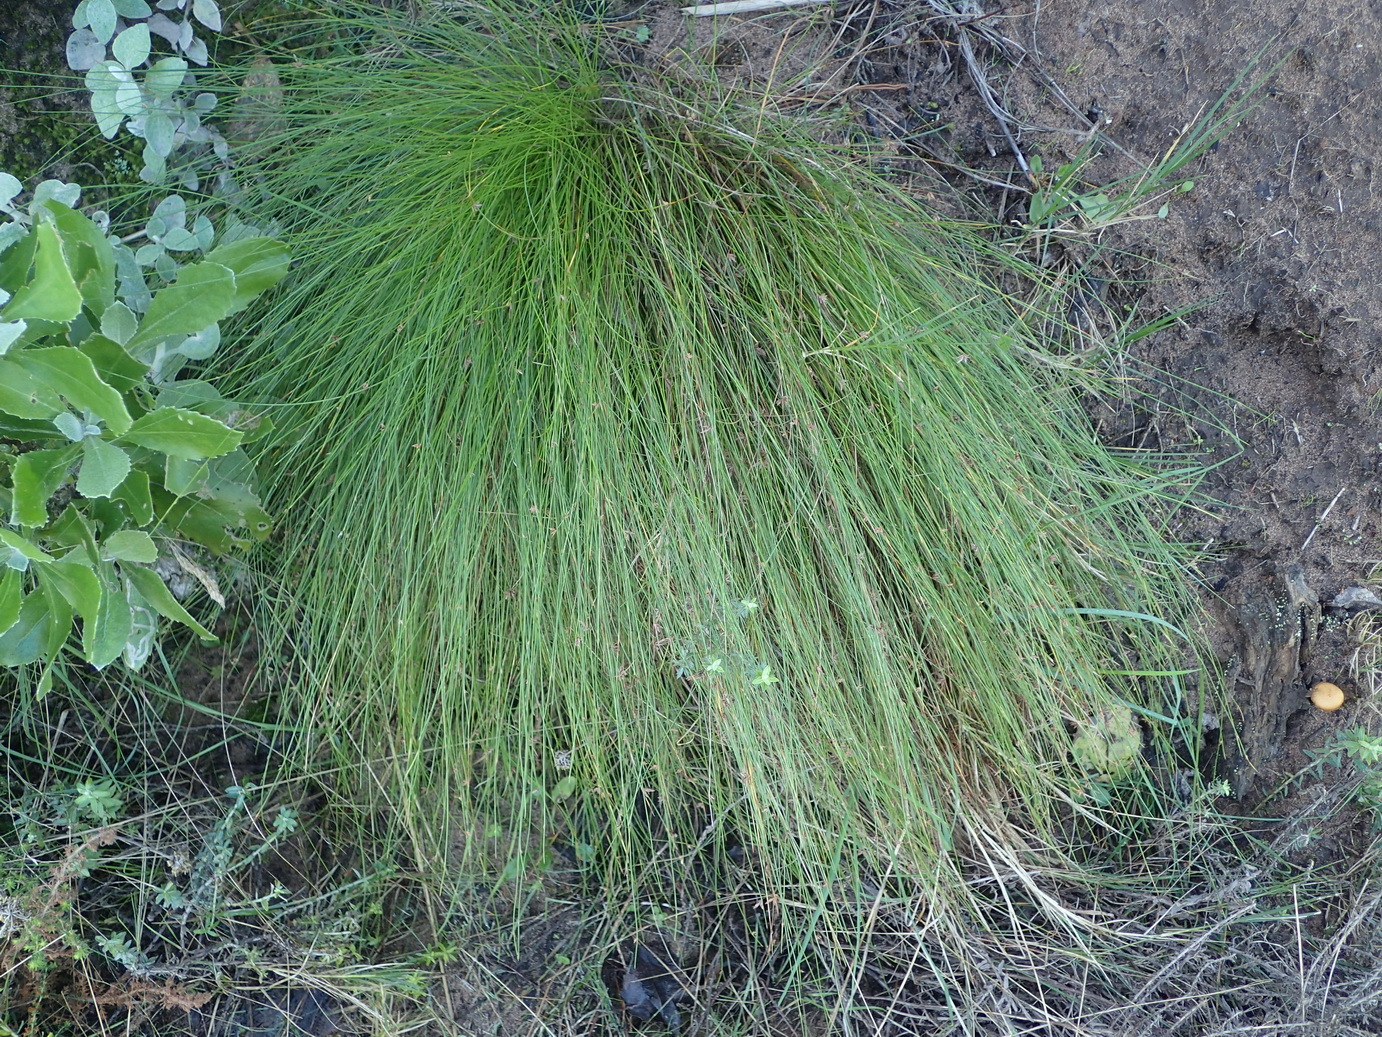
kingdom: Plantae
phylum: Tracheophyta
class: Liliopsida
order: Poales
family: Cyperaceae
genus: Ficinia
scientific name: Ficinia oligantha
